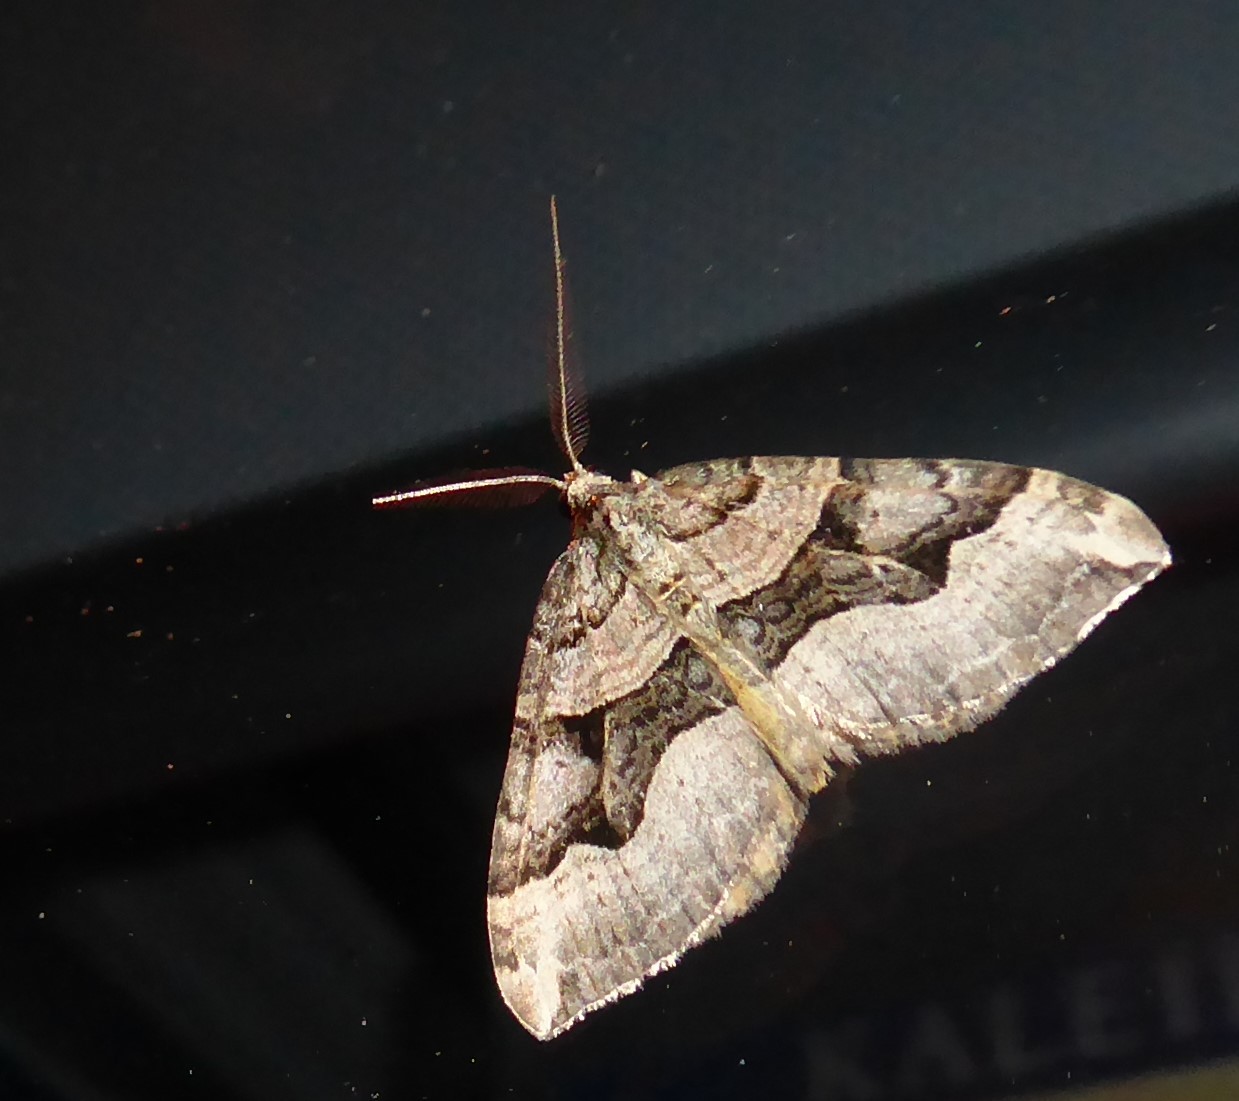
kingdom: Animalia
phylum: Arthropoda
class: Insecta
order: Lepidoptera
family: Geometridae
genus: Xanthorhoe
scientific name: Xanthorhoe semifissata
